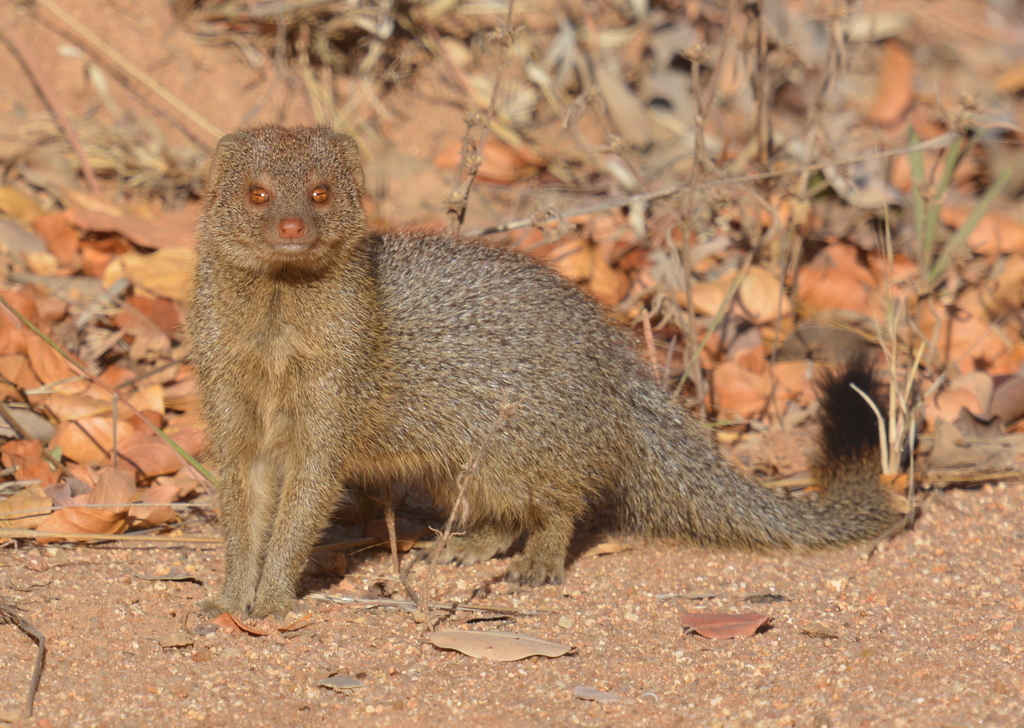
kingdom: Animalia
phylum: Chordata
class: Mammalia
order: Carnivora
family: Herpestidae
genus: Galerella
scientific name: Galerella sanguinea
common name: Slender mongoose
